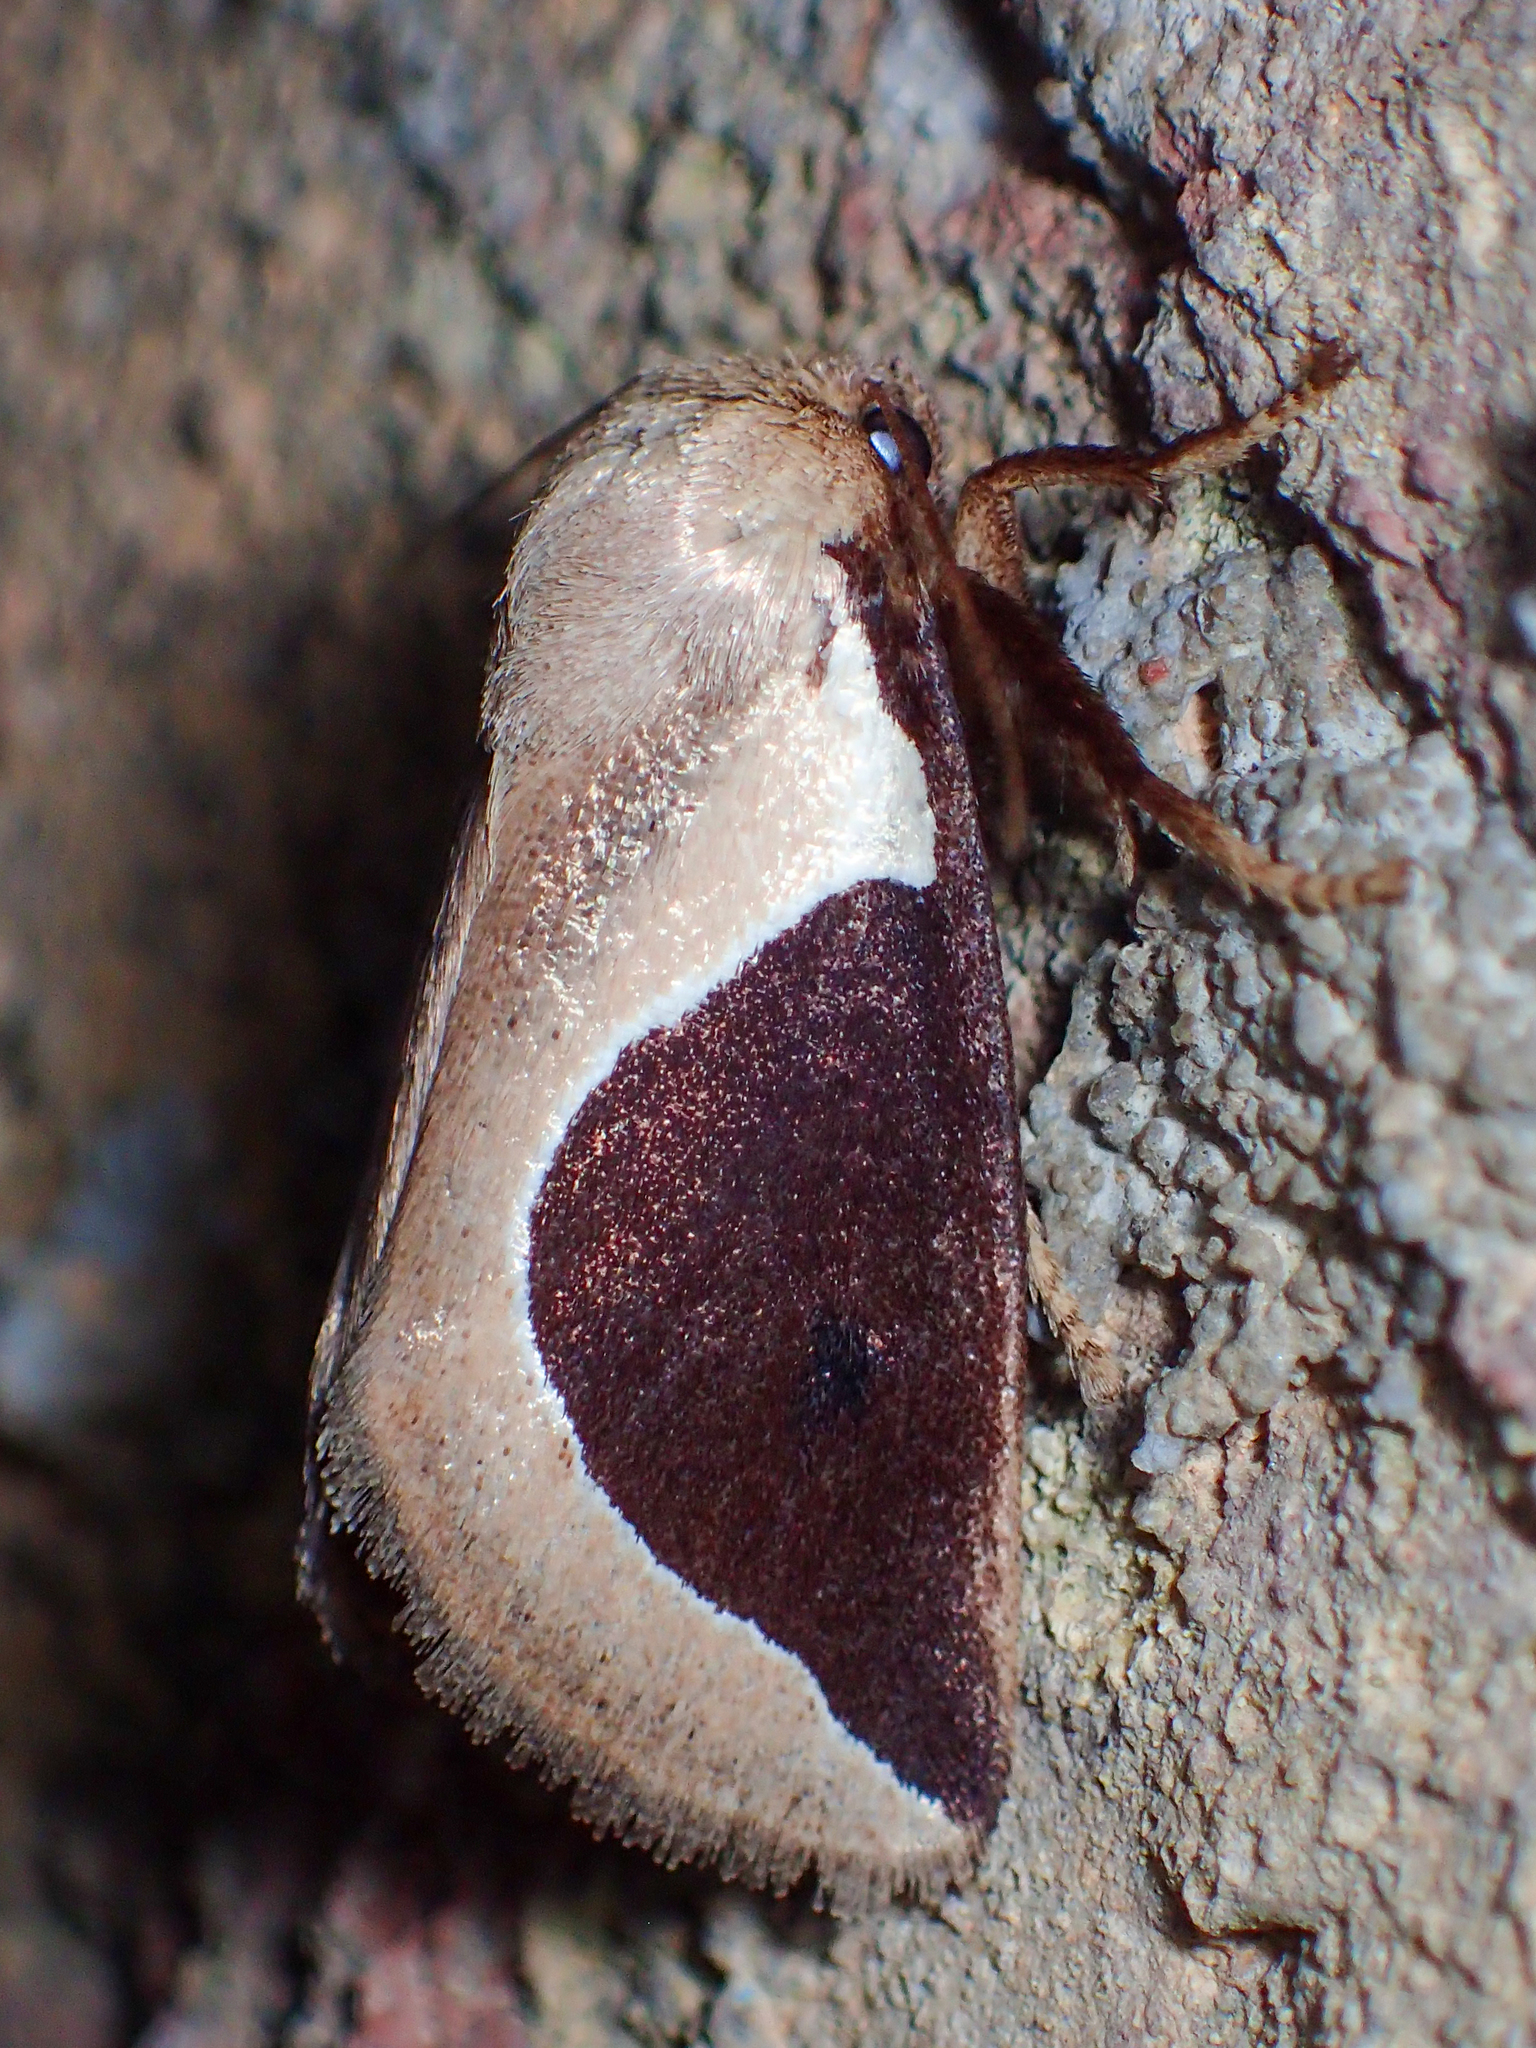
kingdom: Animalia
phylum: Arthropoda
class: Insecta
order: Lepidoptera
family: Limacodidae
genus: Prolimacodes
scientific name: Prolimacodes badia
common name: Skiff moth
